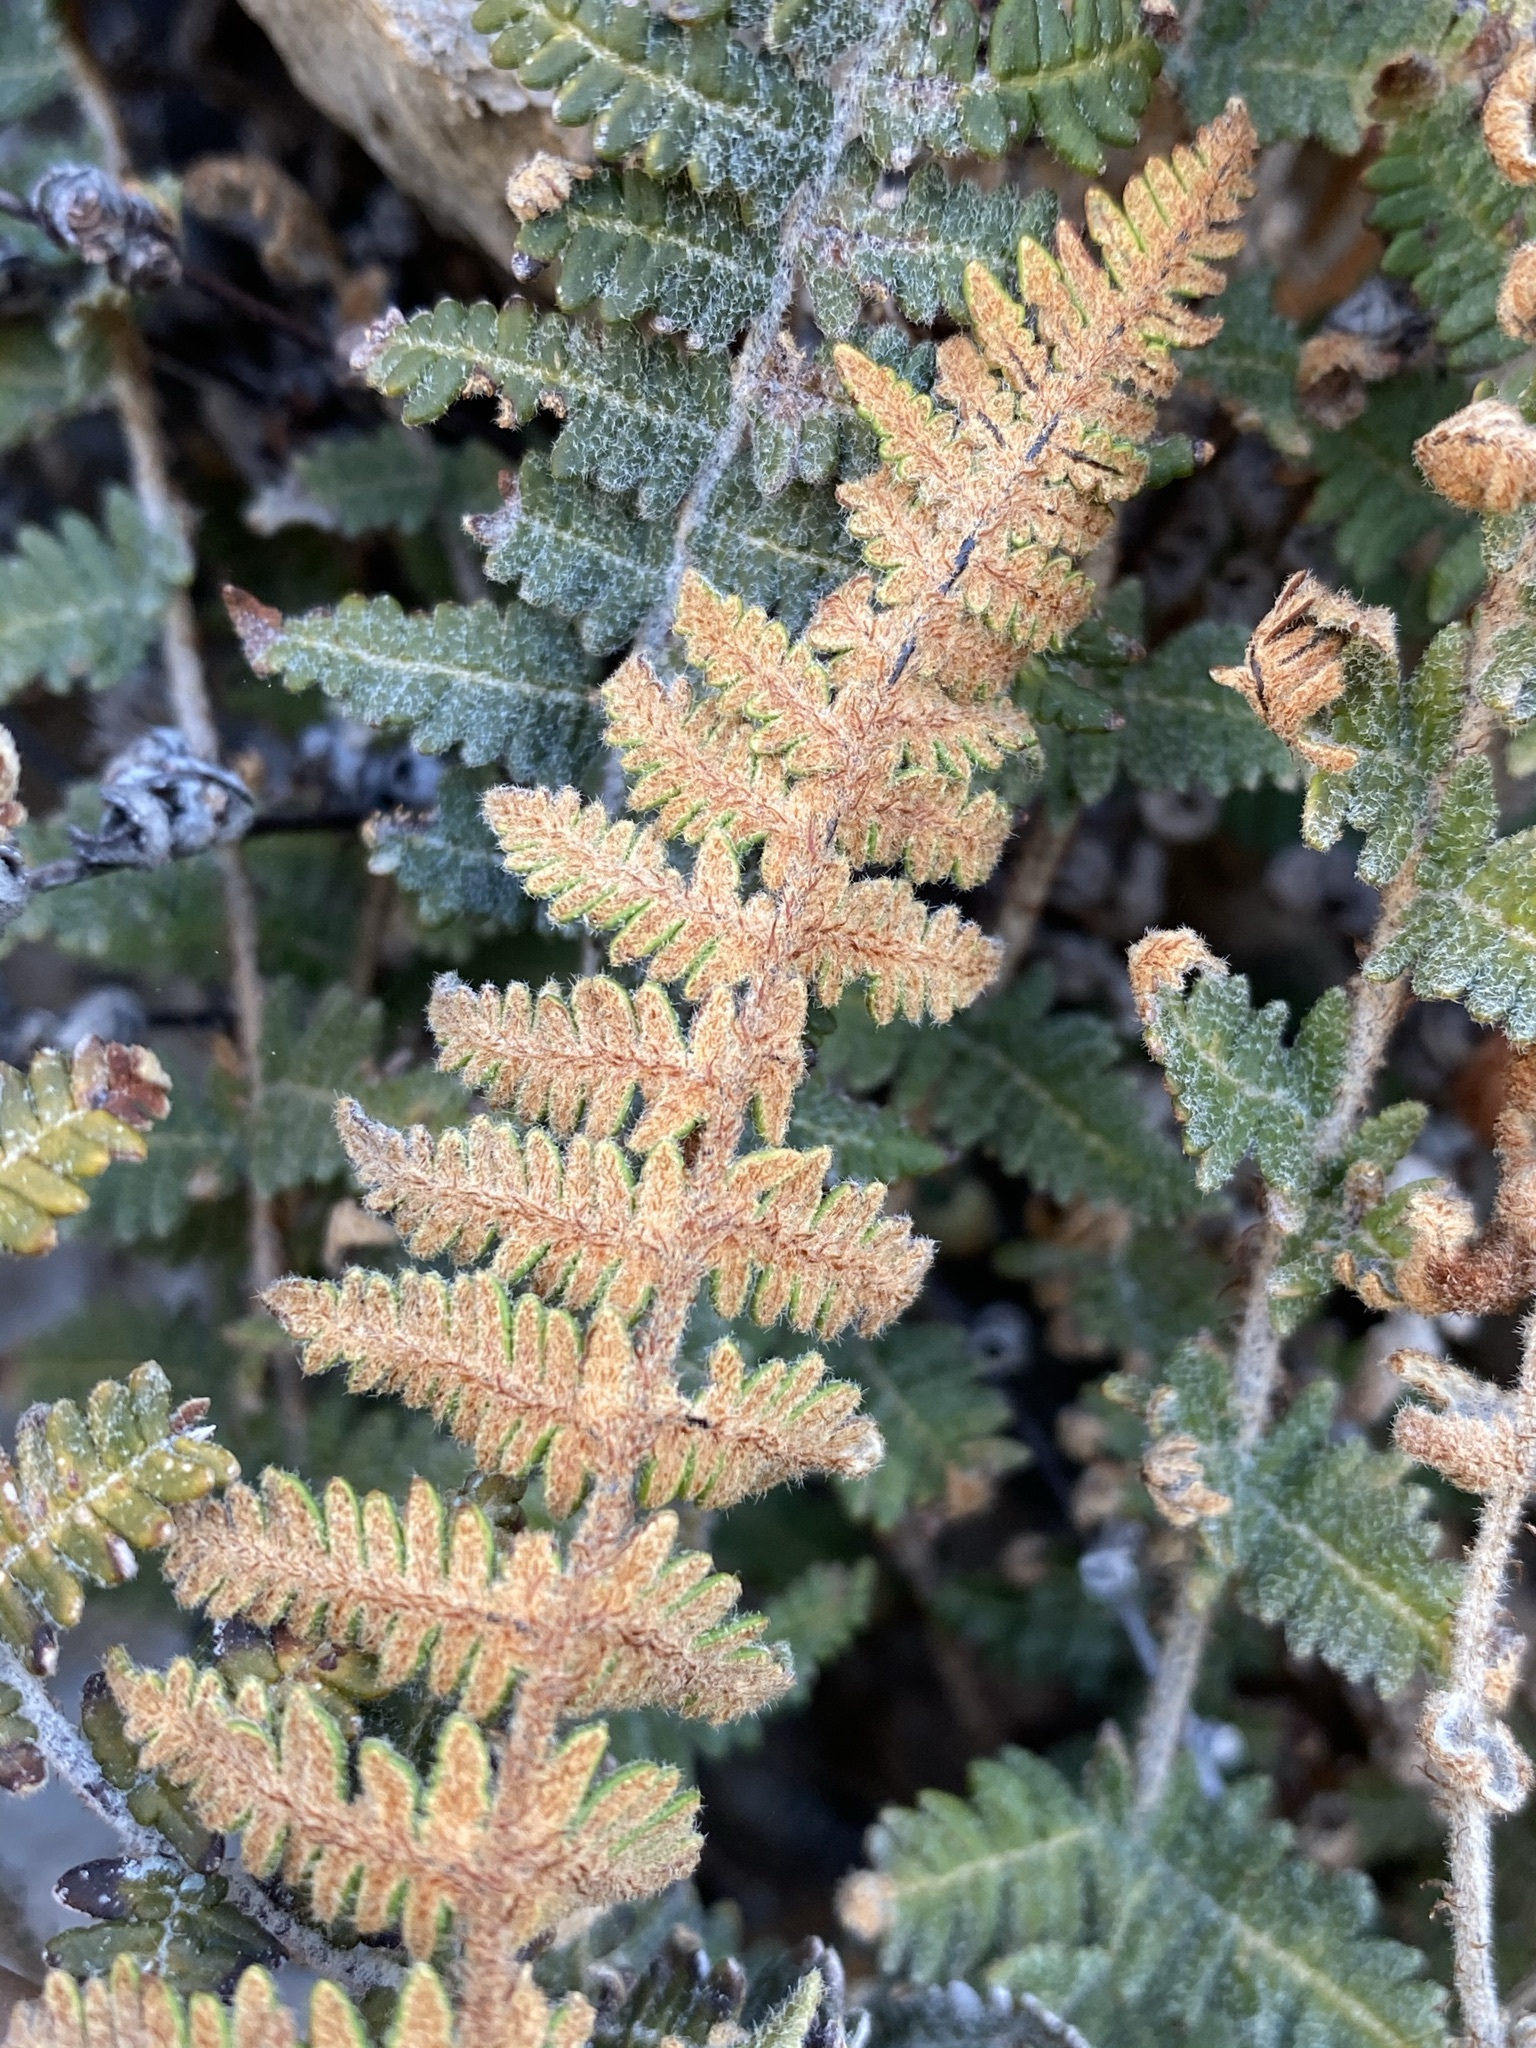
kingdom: Plantae
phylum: Tracheophyta
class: Polypodiopsida
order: Polypodiales
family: Pteridaceae
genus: Notholaena
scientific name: Notholaena aschenborniana
